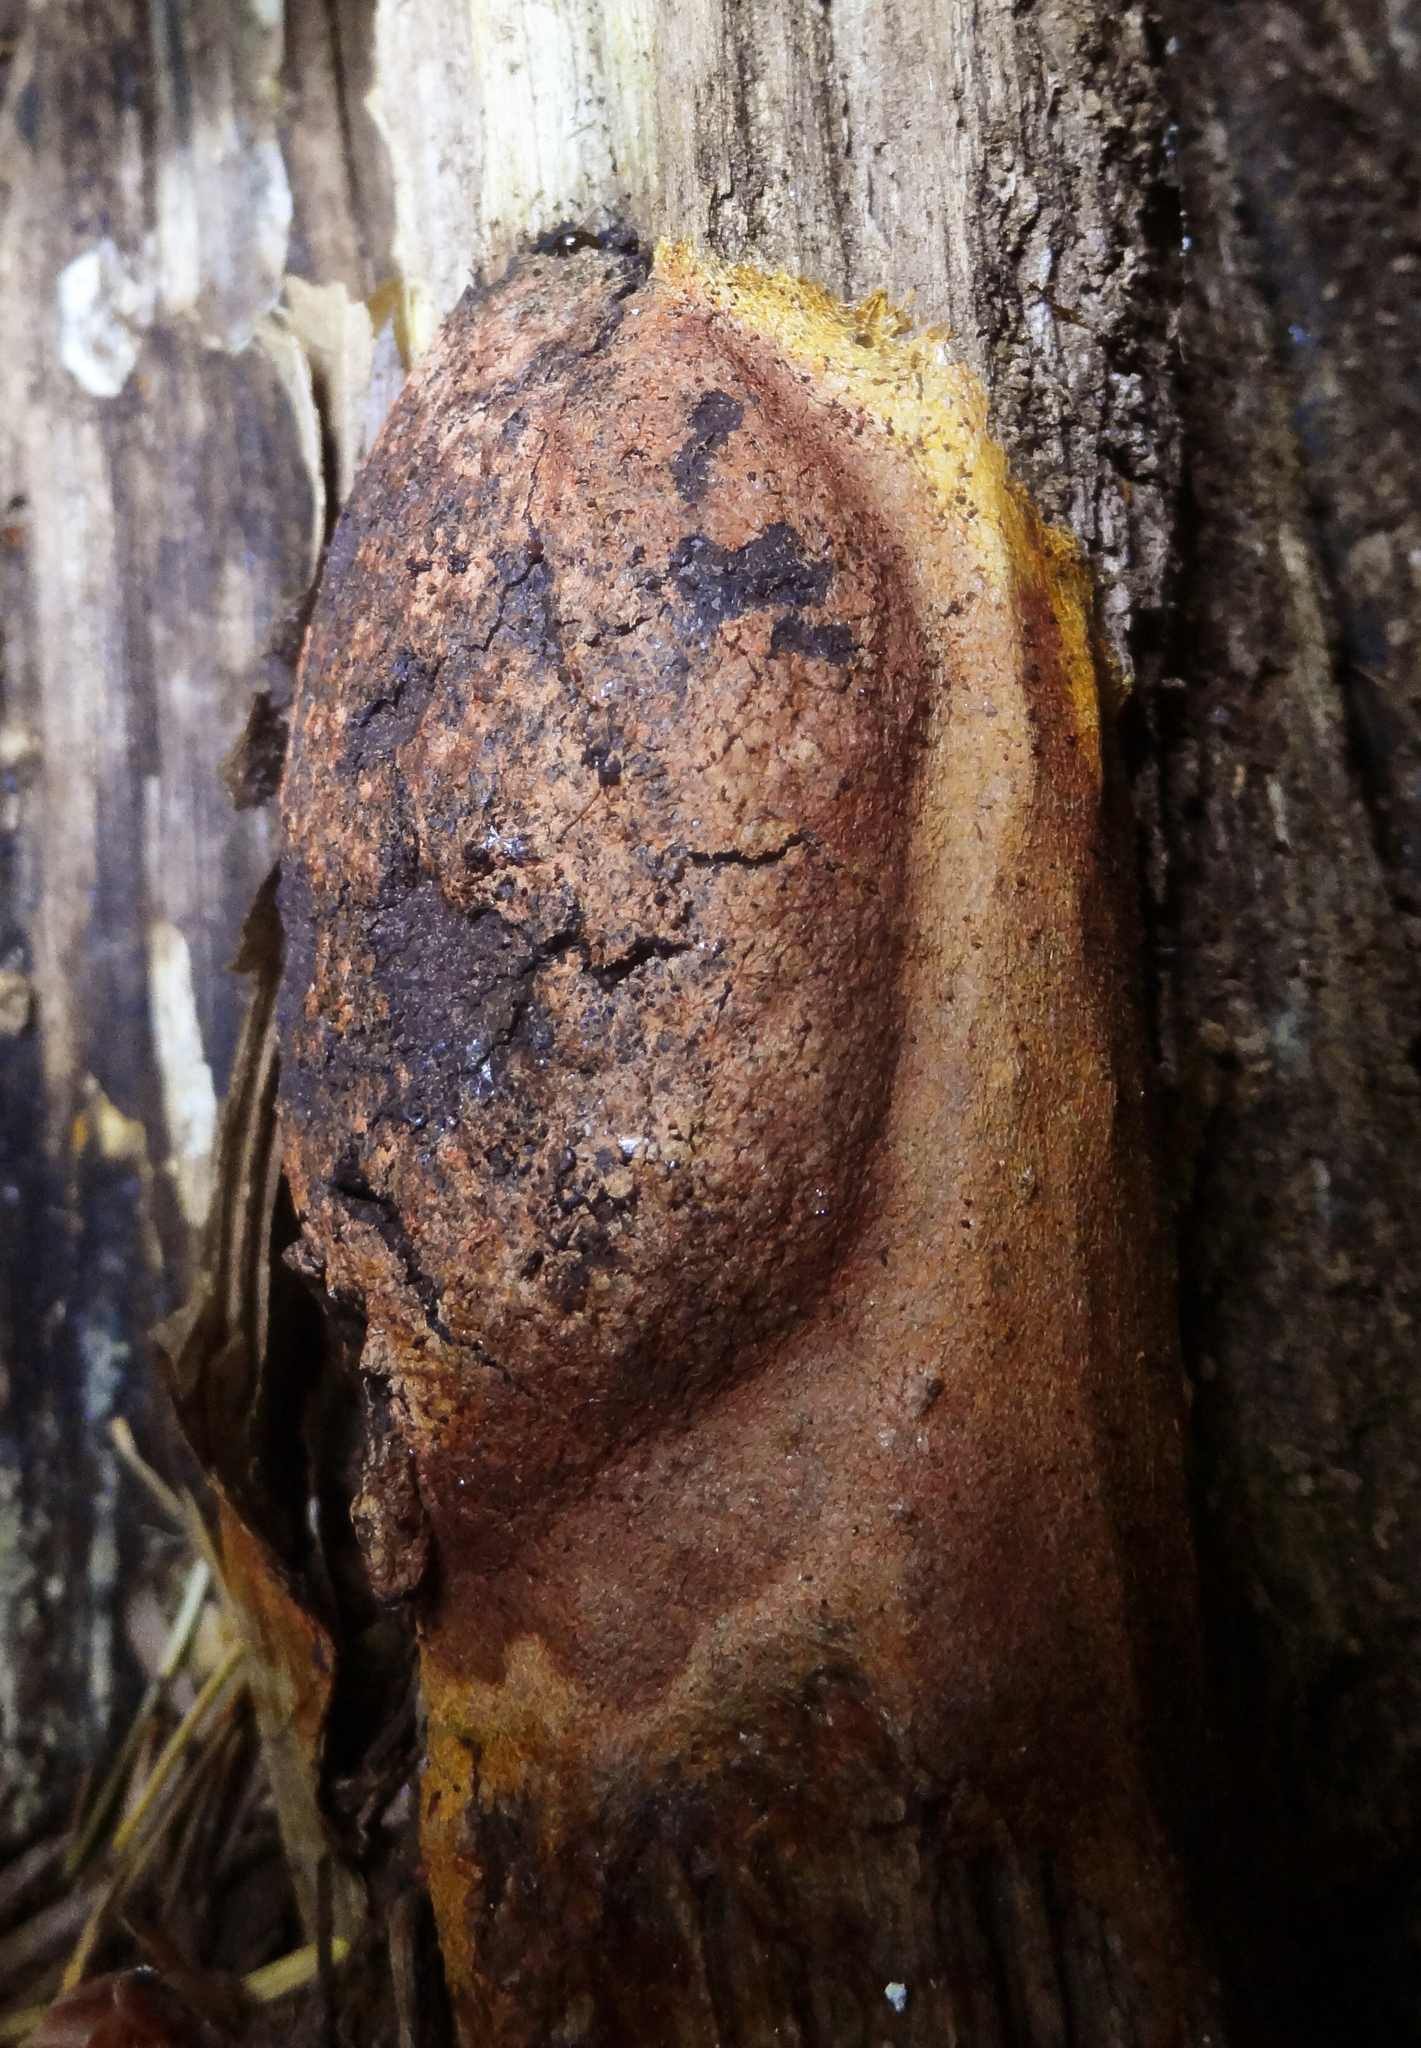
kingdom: Protozoa
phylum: Mycetozoa
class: Myxomycetes
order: Physarales
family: Physaraceae
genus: Fuligo
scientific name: Fuligo leviderma
